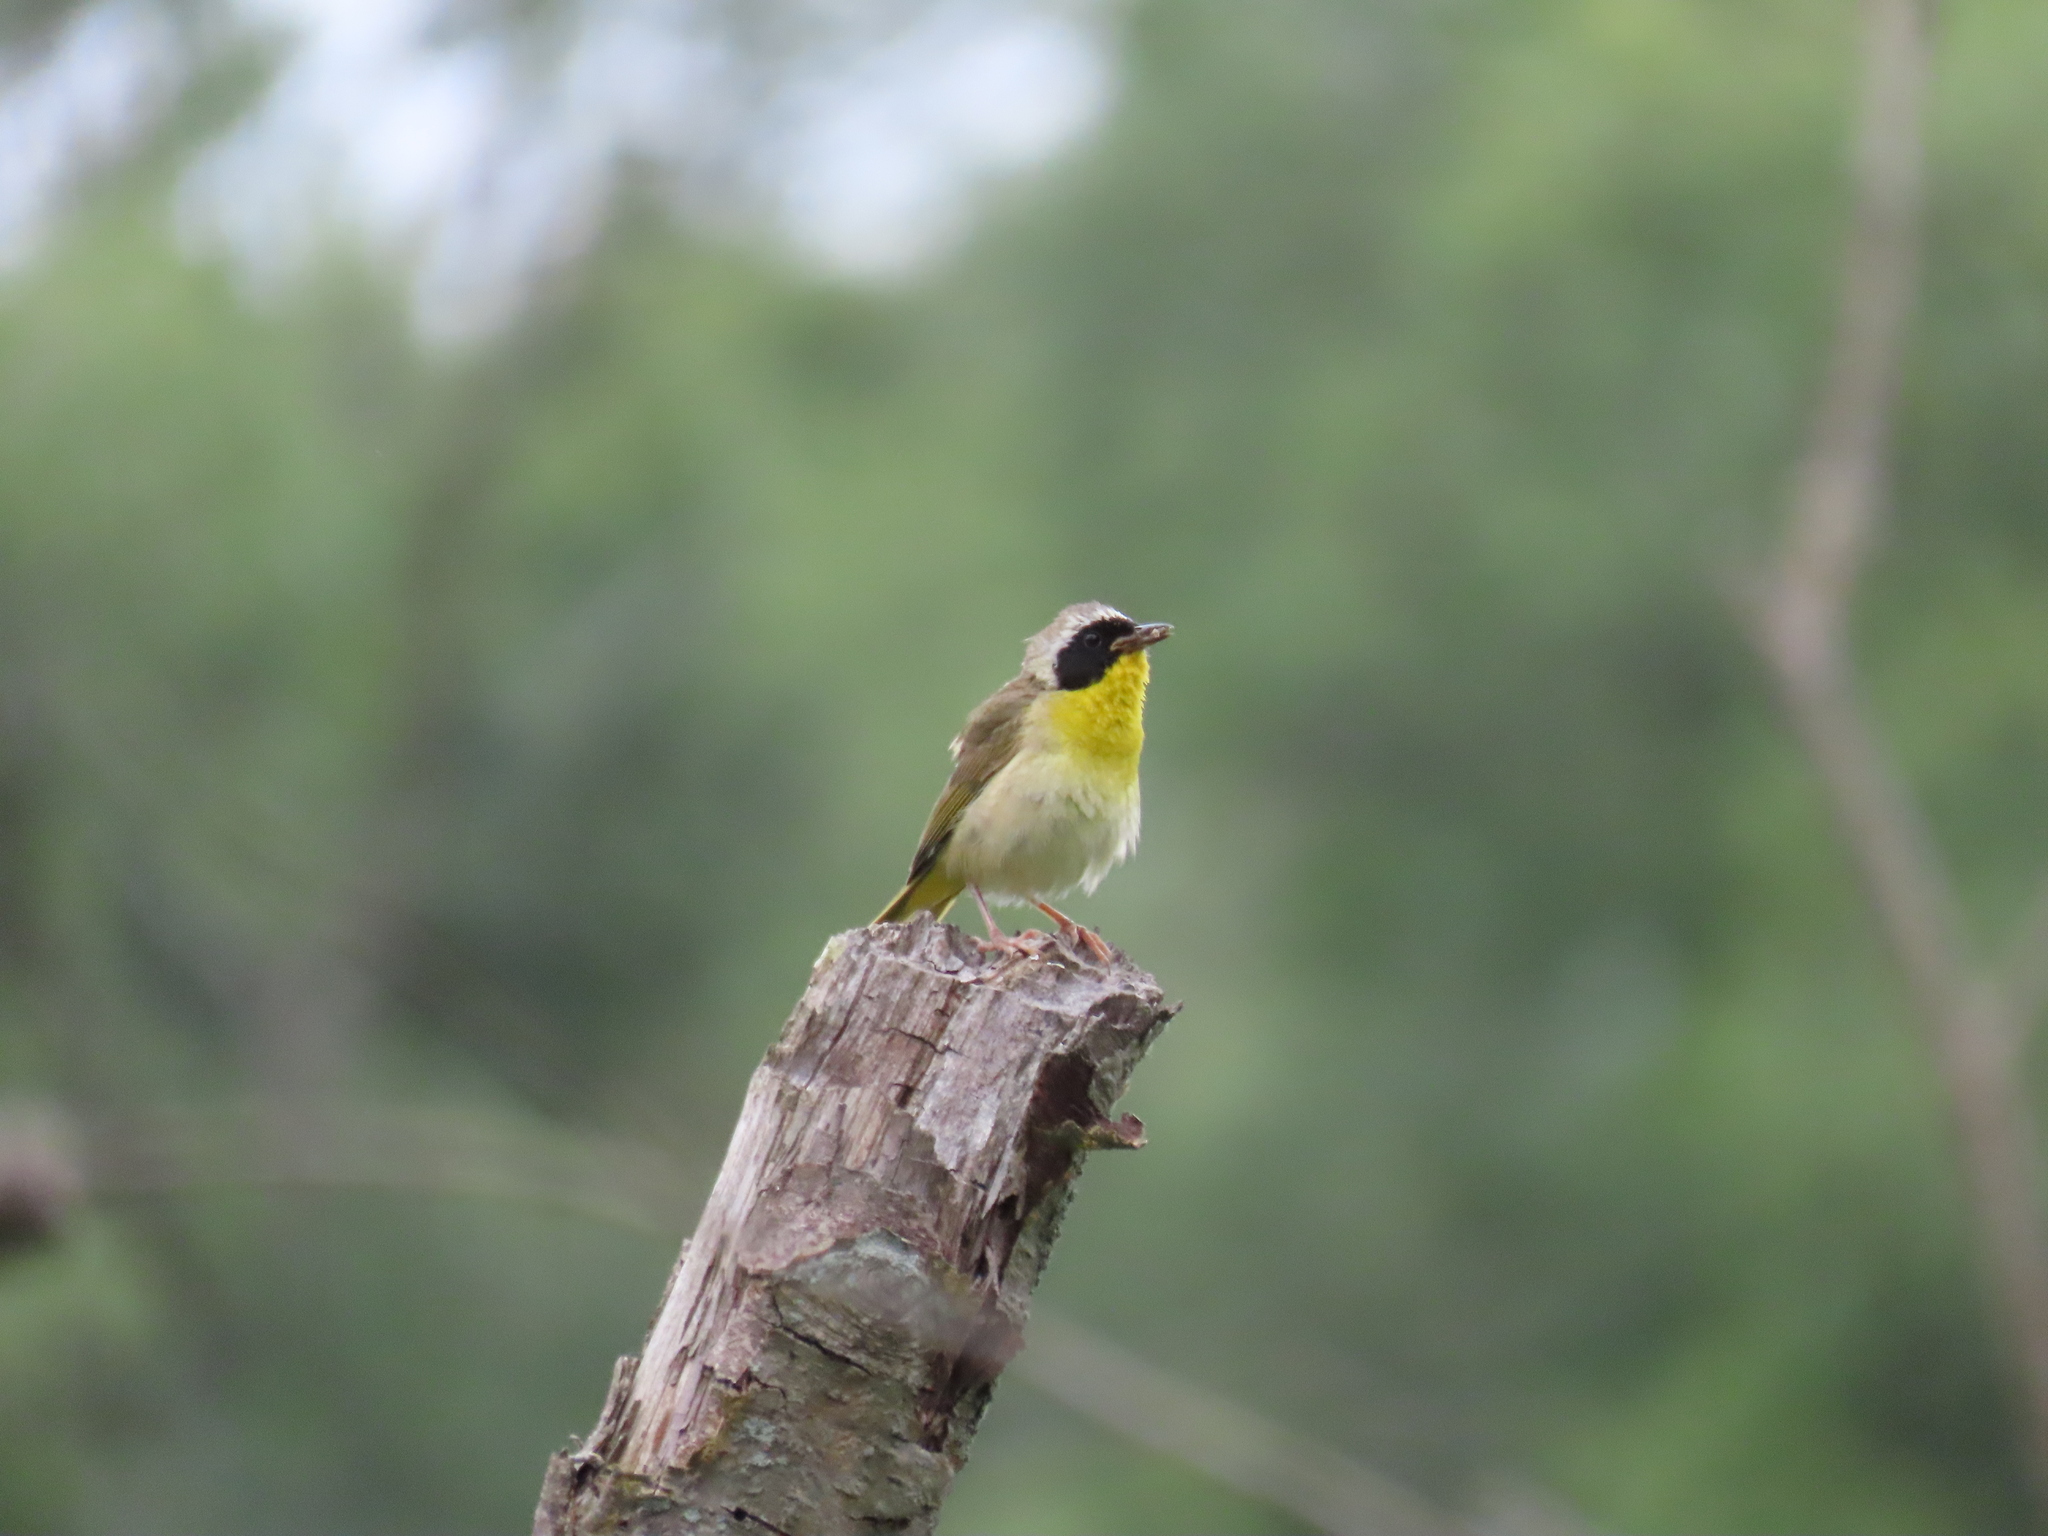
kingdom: Animalia
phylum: Chordata
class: Aves
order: Passeriformes
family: Parulidae
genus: Geothlypis
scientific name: Geothlypis trichas
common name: Common yellowthroat
